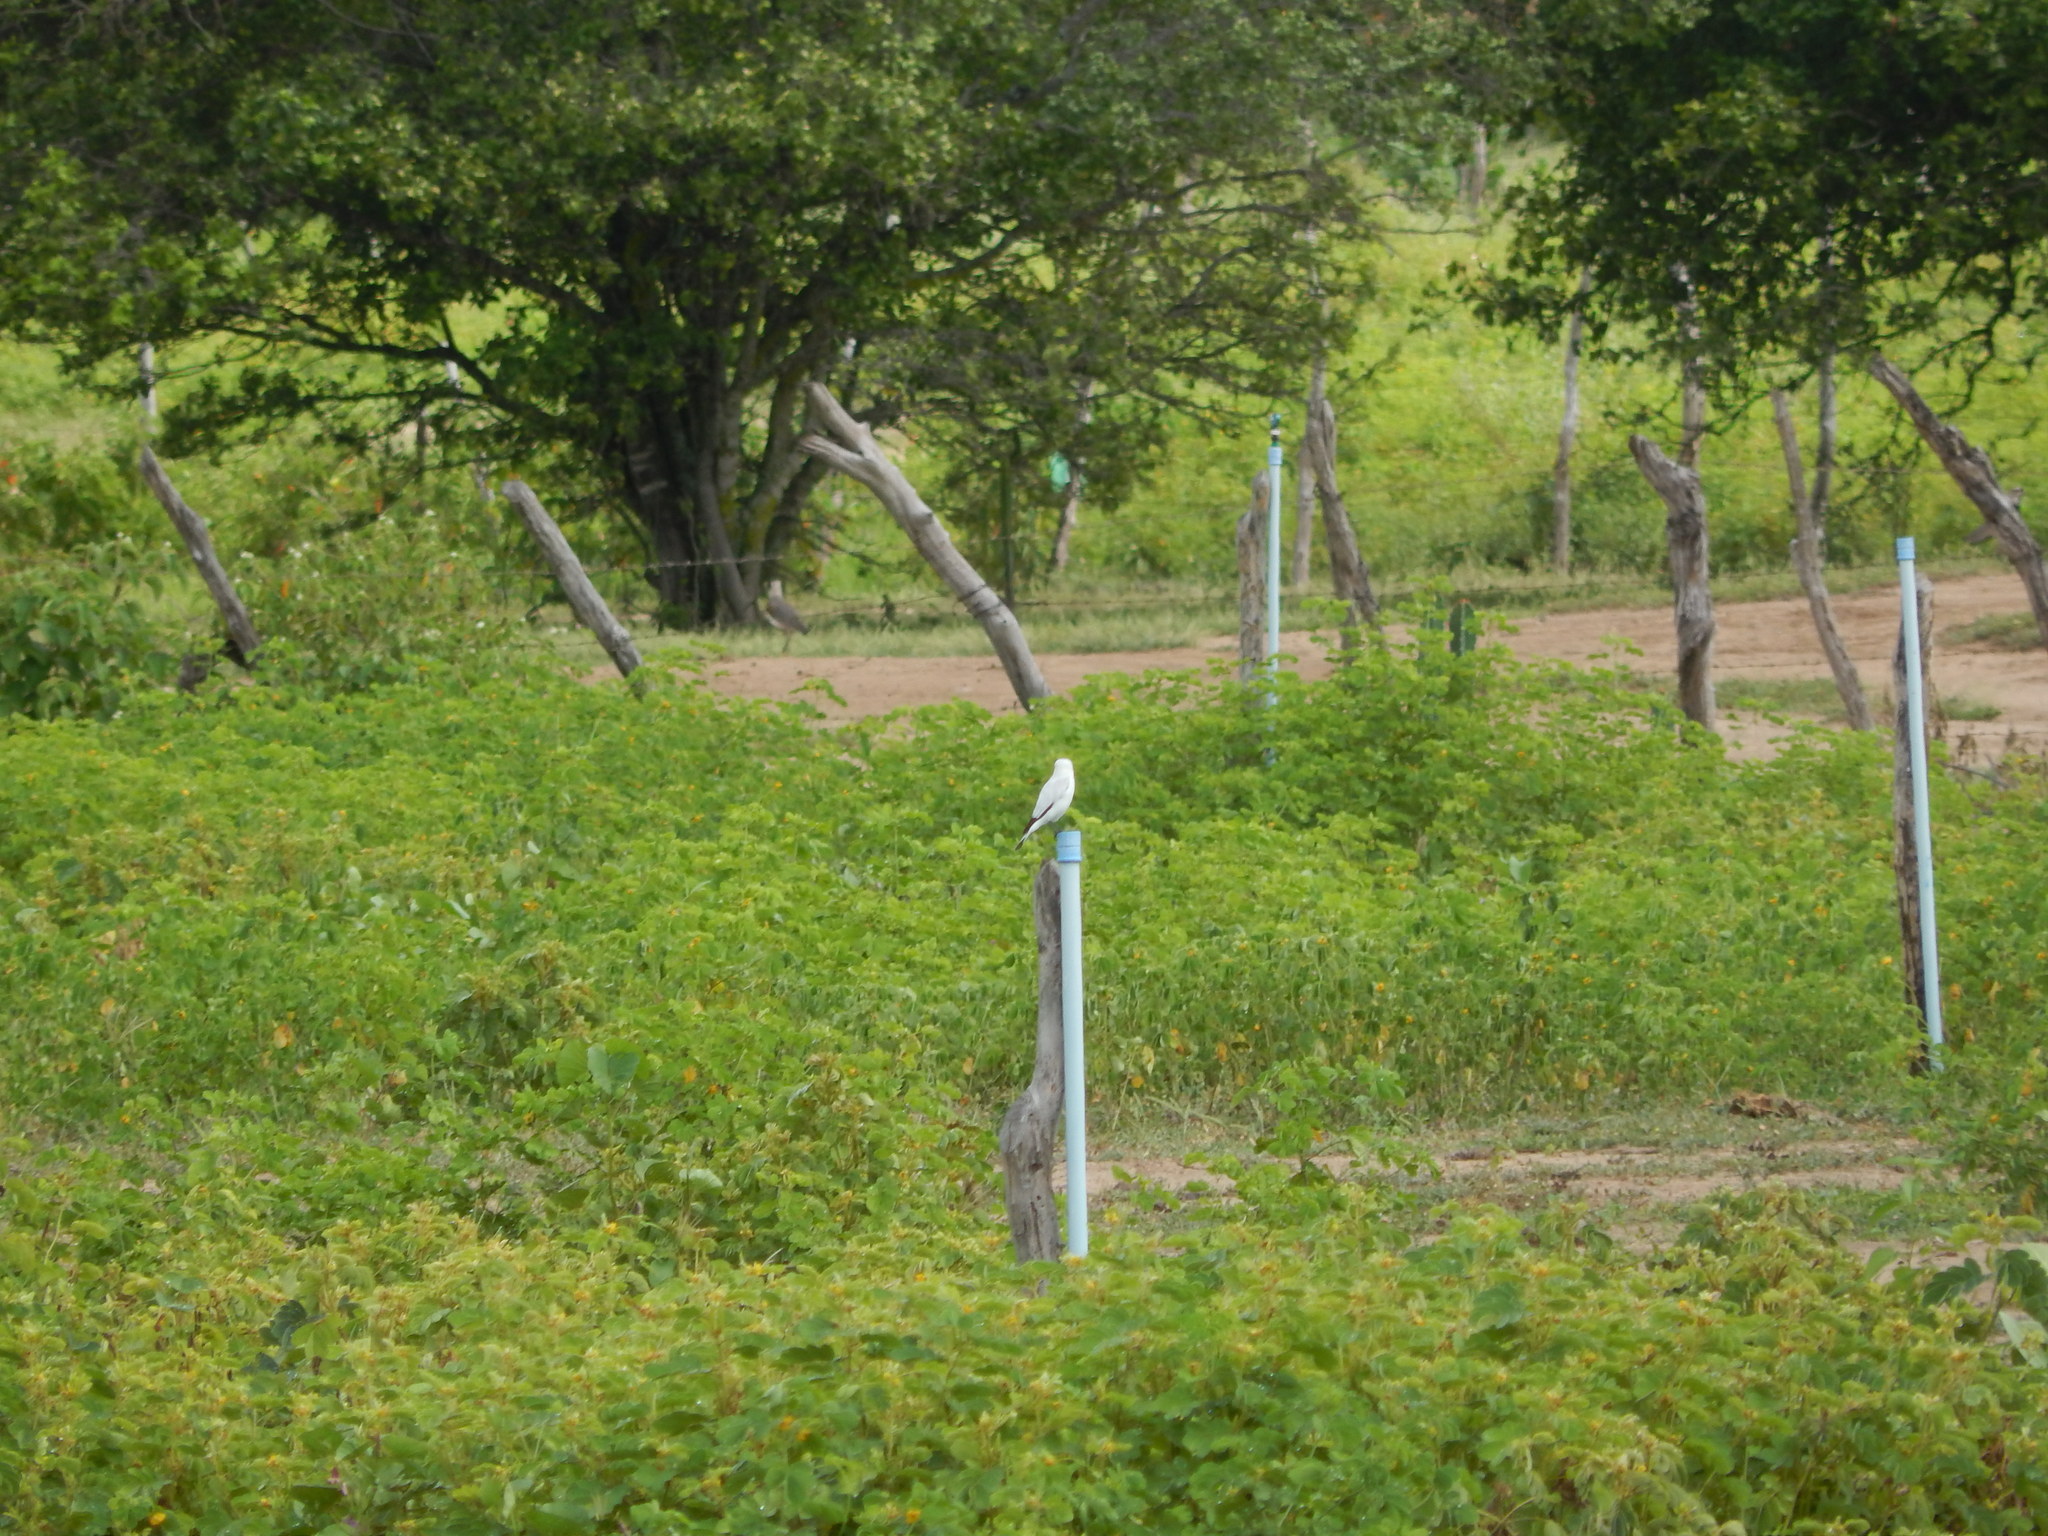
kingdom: Animalia
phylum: Chordata
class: Aves
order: Passeriformes
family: Tyrannidae
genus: Xolmis
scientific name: Xolmis irupero
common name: White monjita
